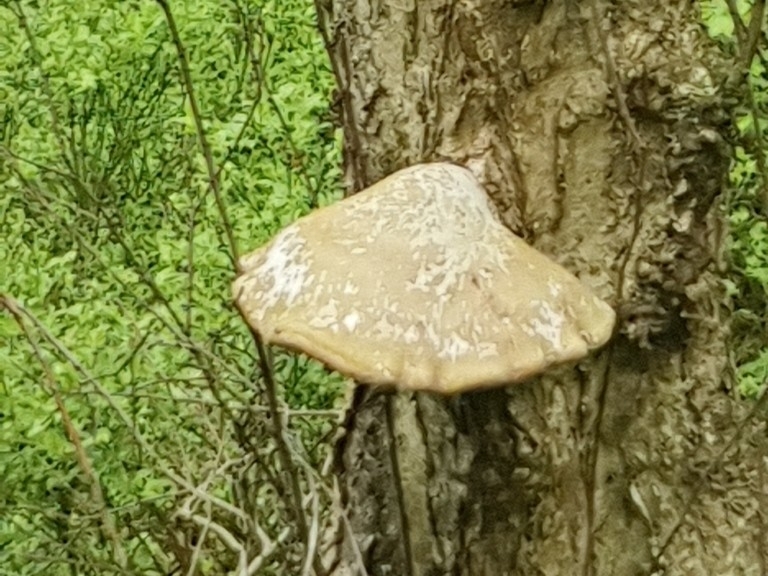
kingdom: Fungi
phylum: Basidiomycota
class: Agaricomycetes
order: Polyporales
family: Fomitopsidaceae
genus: Fomitopsis
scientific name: Fomitopsis betulina
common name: Birch polypore
